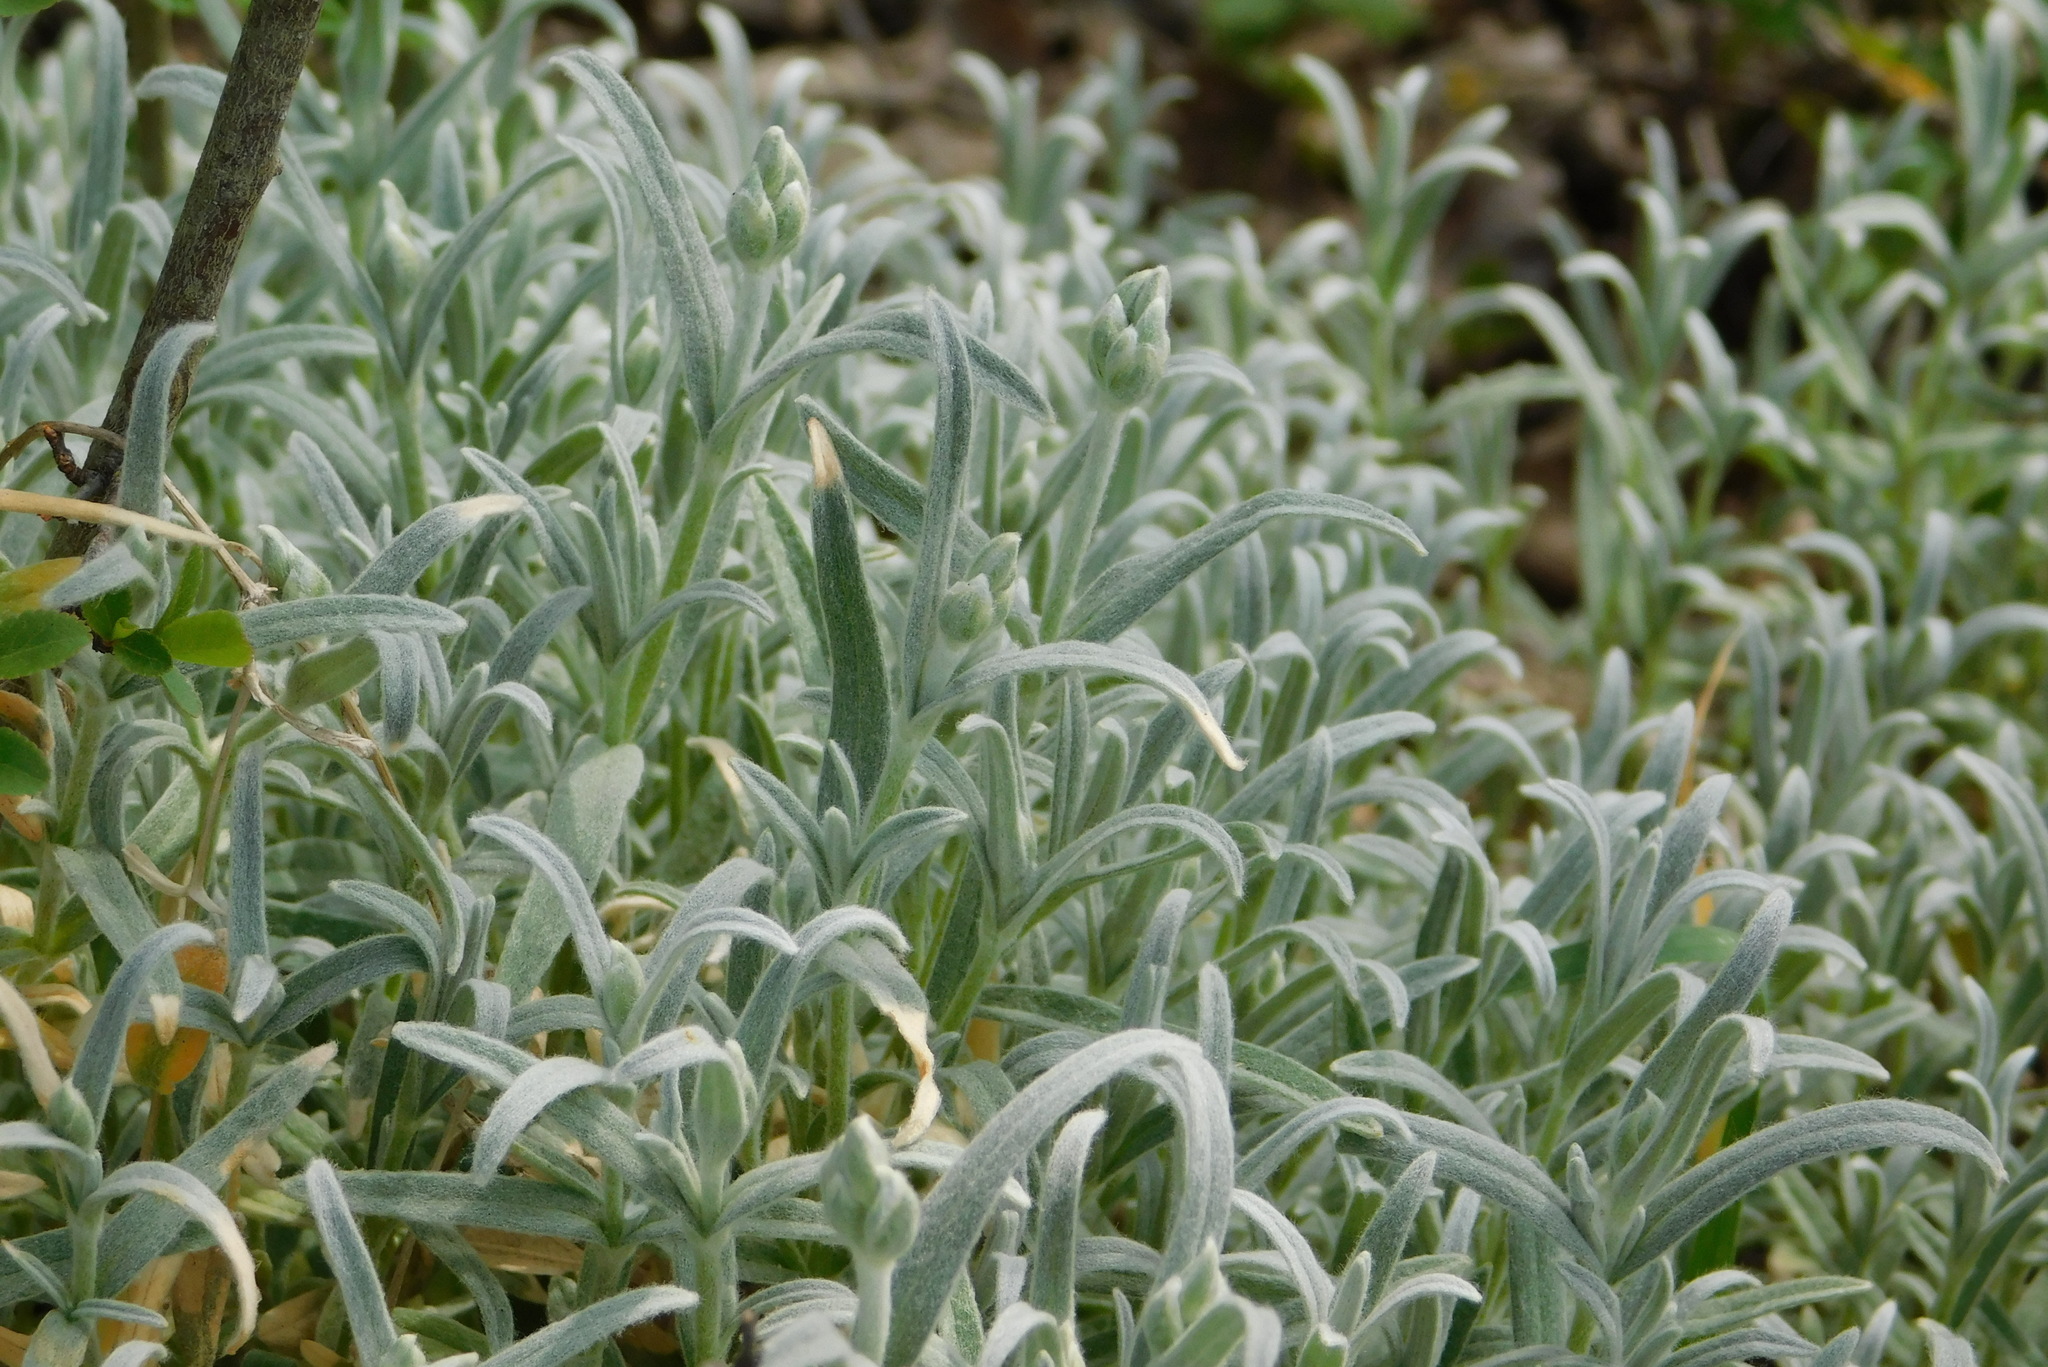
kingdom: Plantae
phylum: Tracheophyta
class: Magnoliopsida
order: Caryophyllales
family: Caryophyllaceae
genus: Cerastium
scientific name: Cerastium tomentosum
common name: Snow-in-summer
